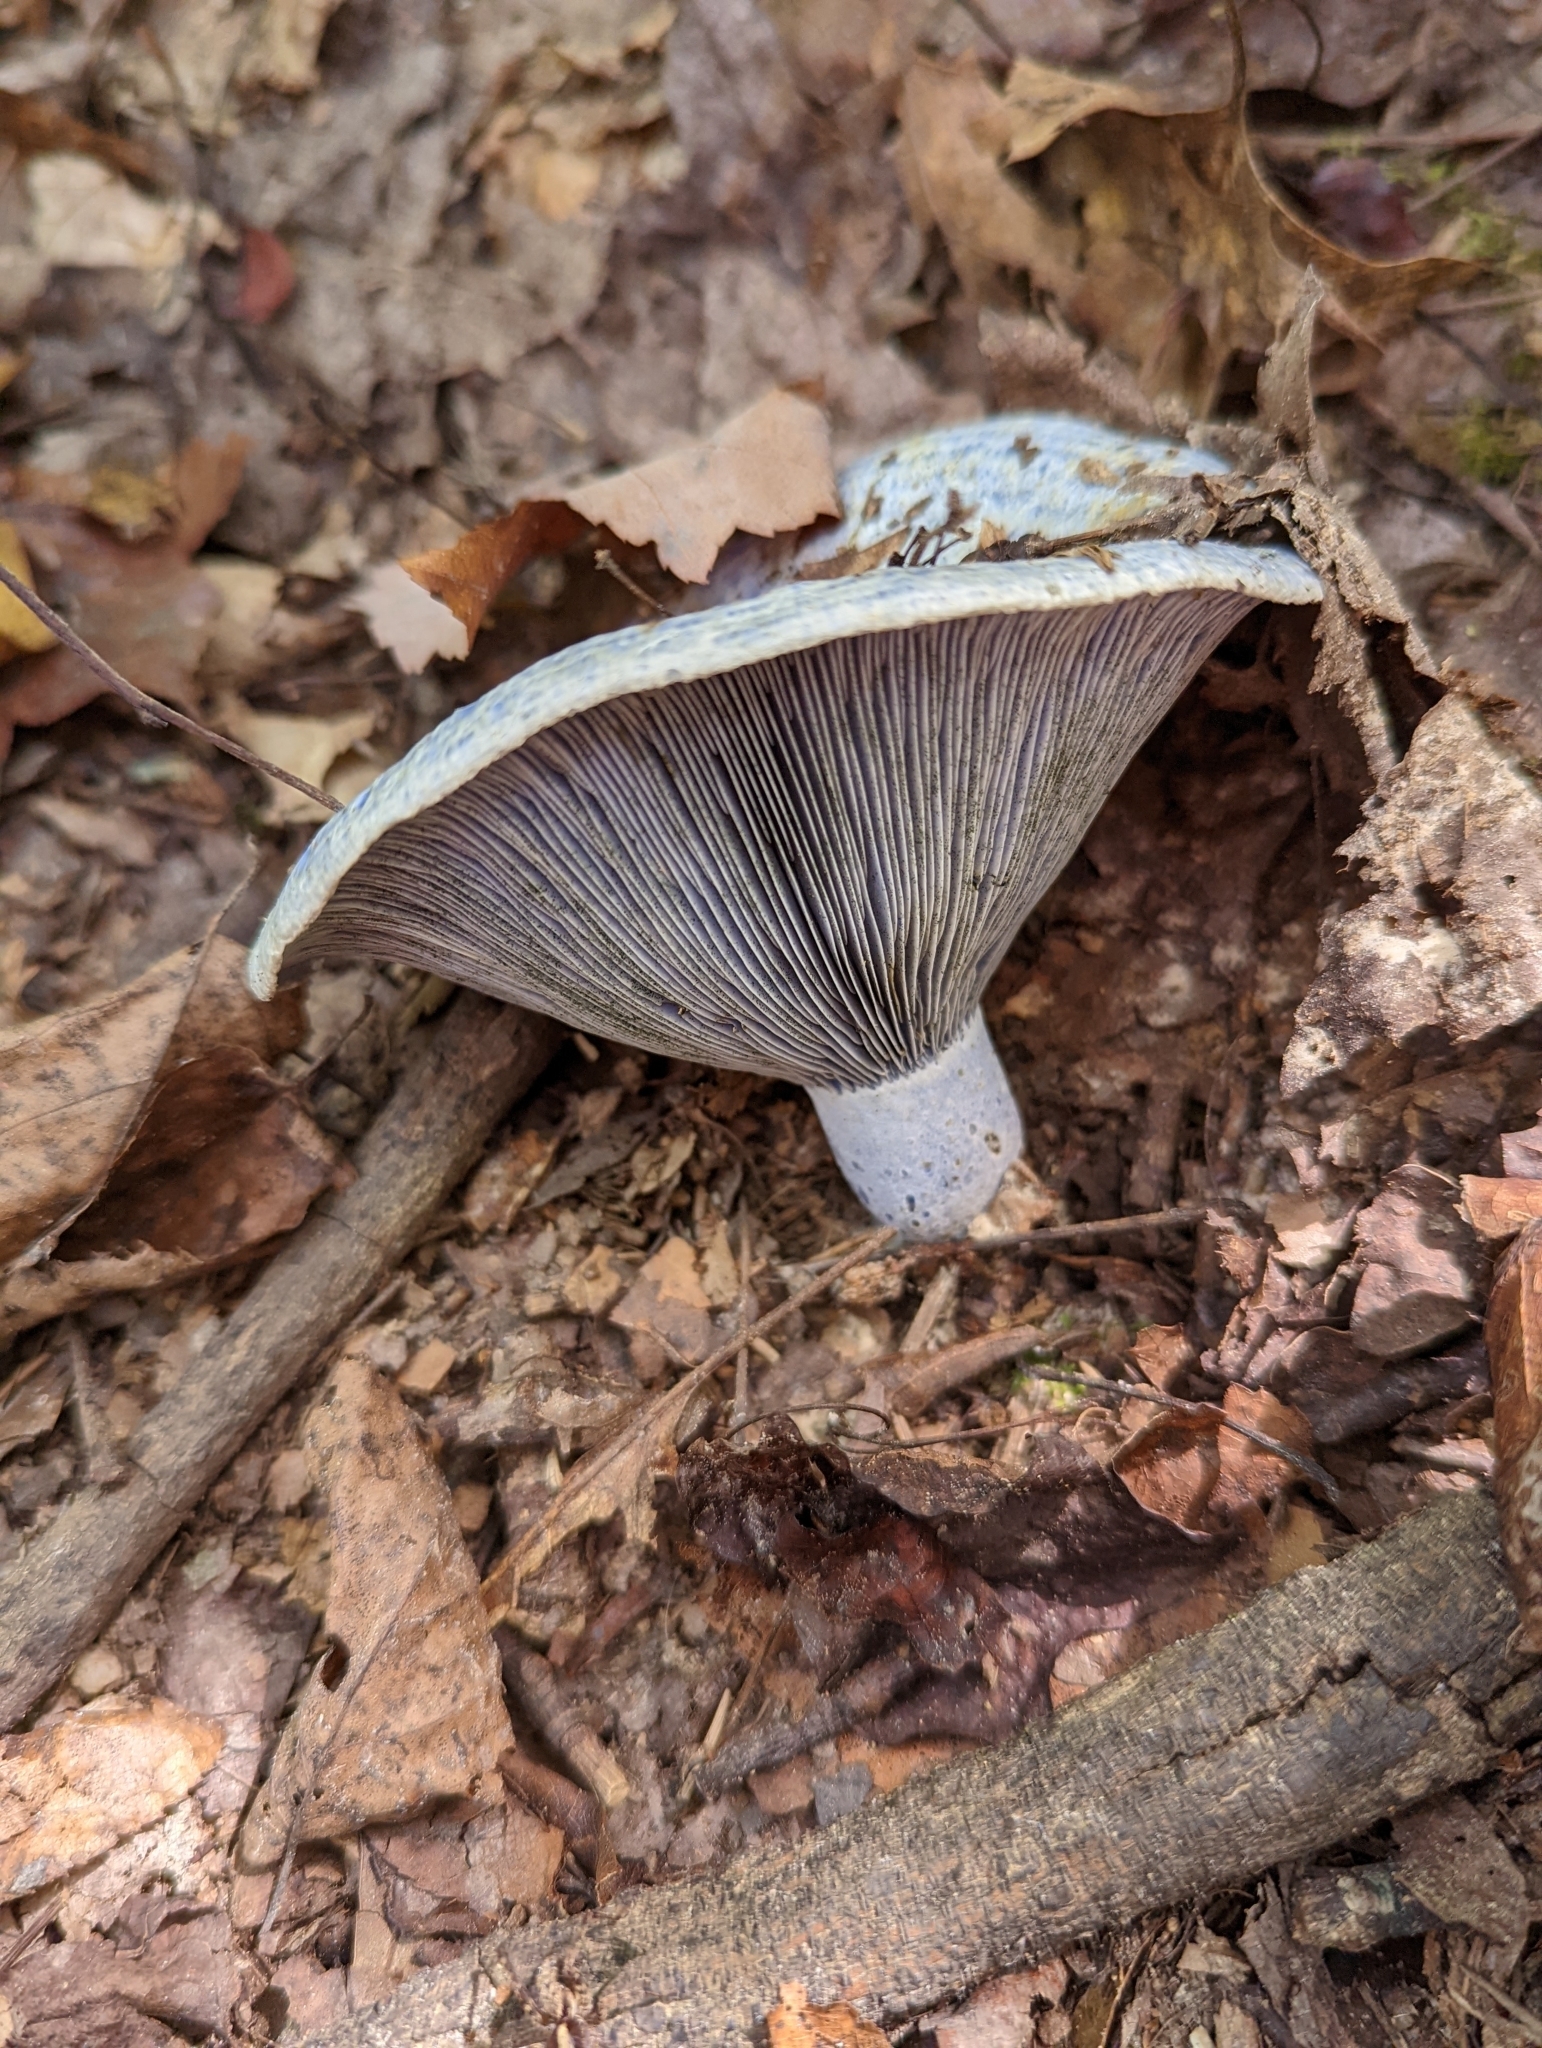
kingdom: Fungi
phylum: Basidiomycota
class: Agaricomycetes
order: Russulales
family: Russulaceae
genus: Lactarius
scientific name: Lactarius indigo
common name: Indigo milk cap
